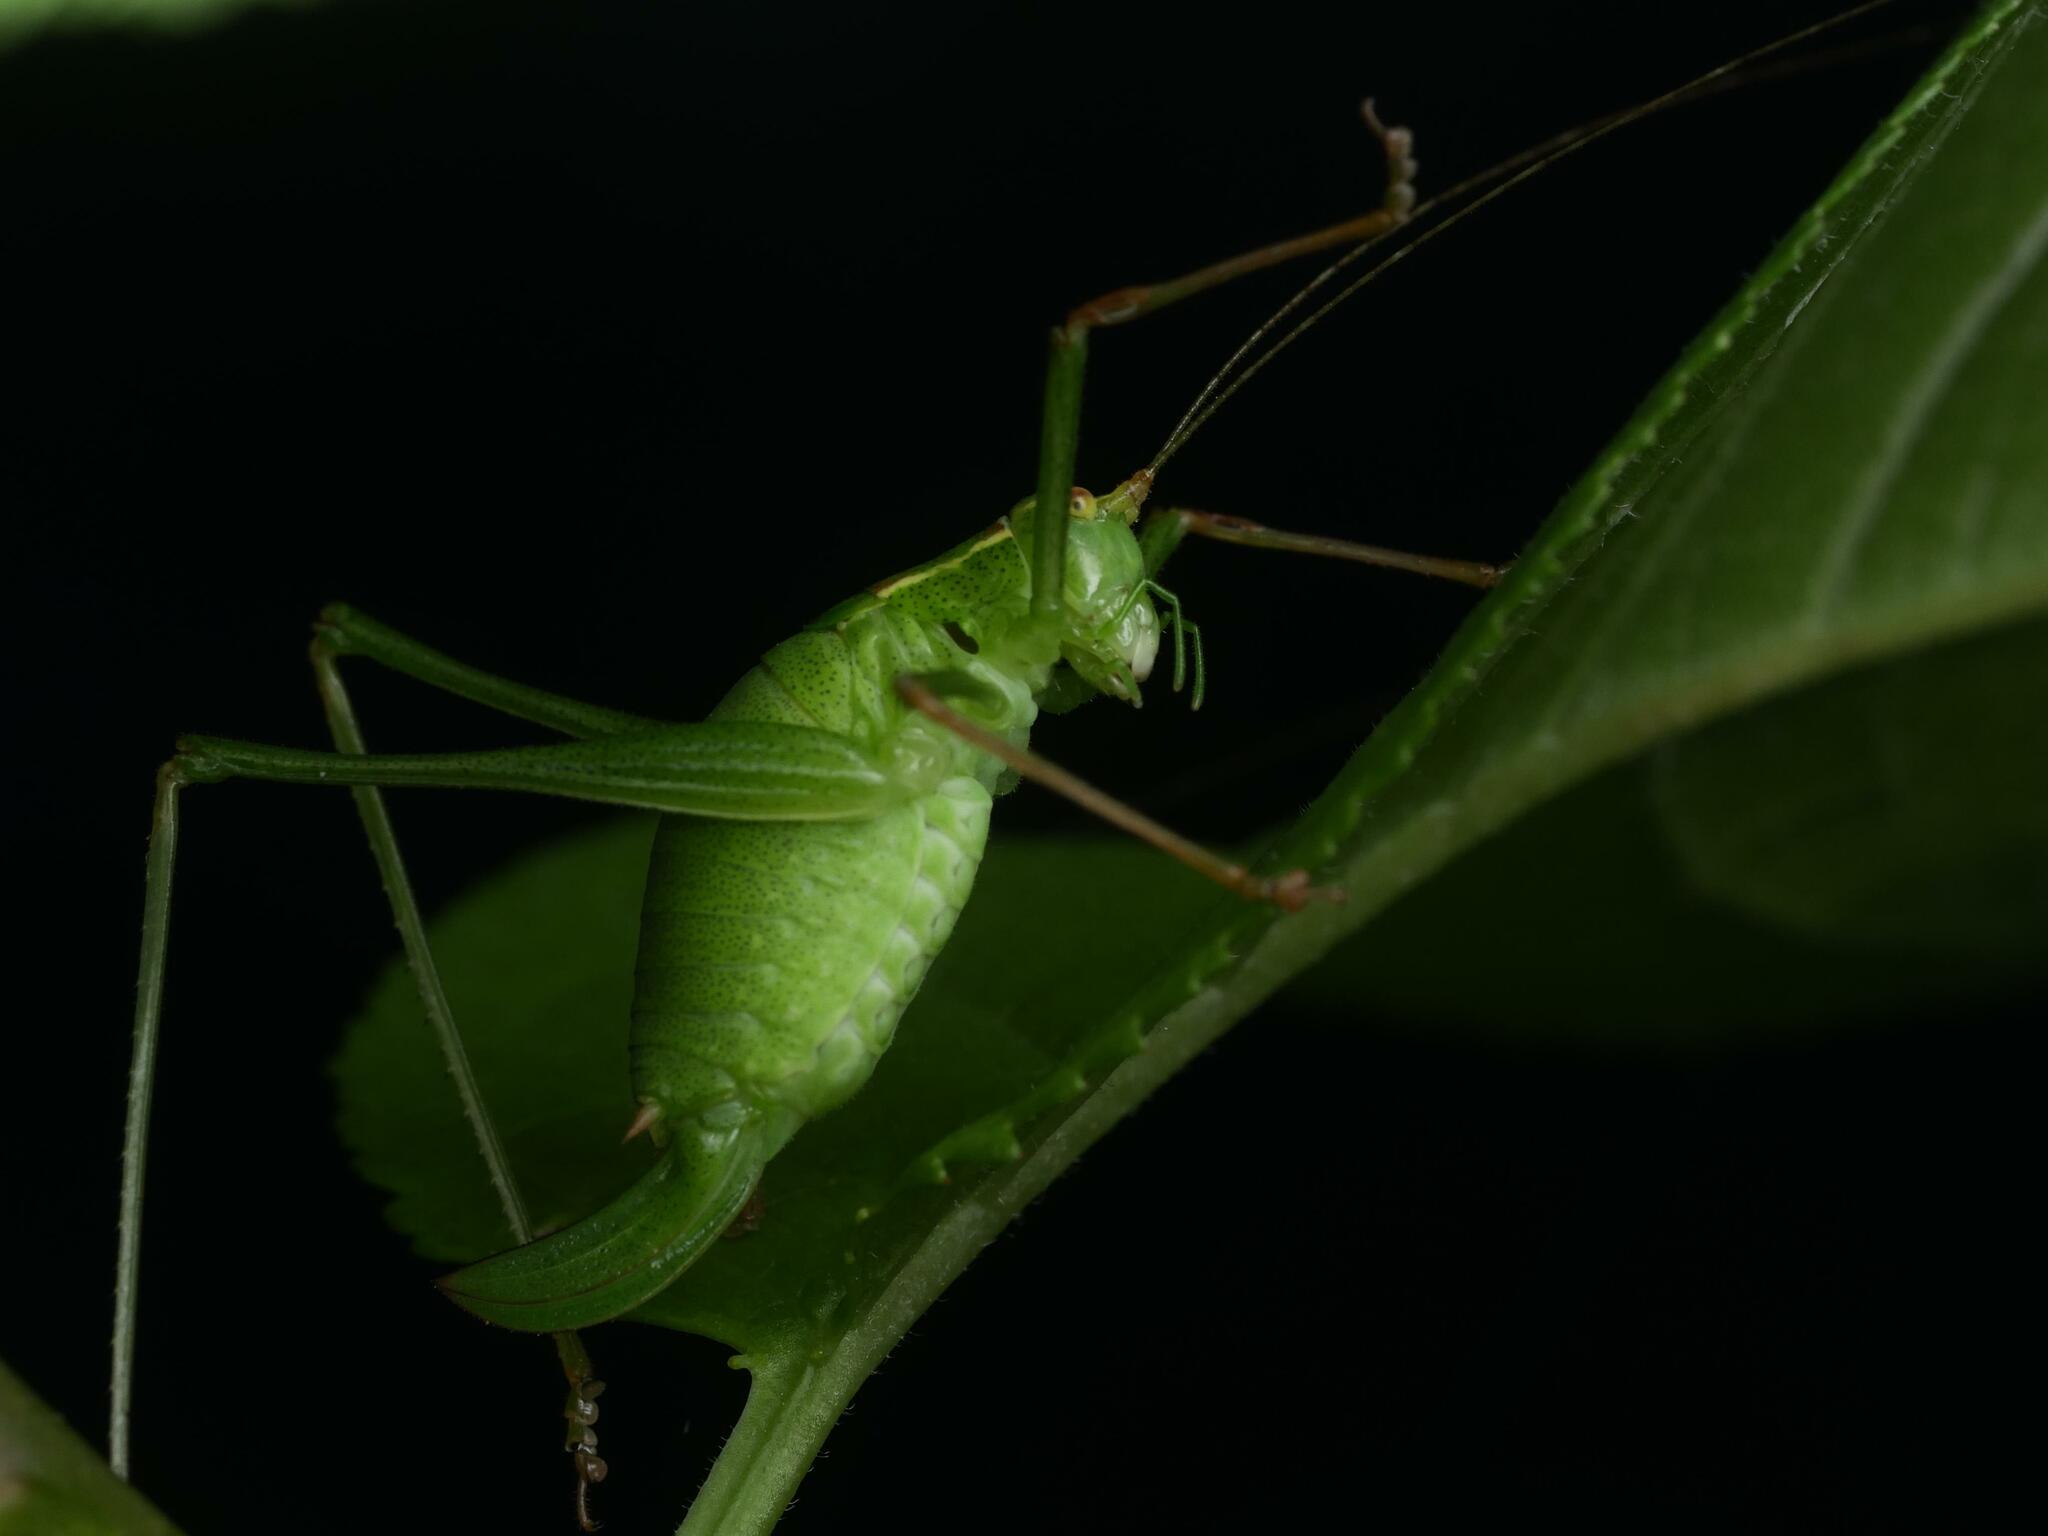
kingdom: Animalia
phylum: Arthropoda
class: Insecta
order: Orthoptera
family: Tettigoniidae
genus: Leptophyes
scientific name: Leptophyes punctatissima
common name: Speckled bush-cricket
